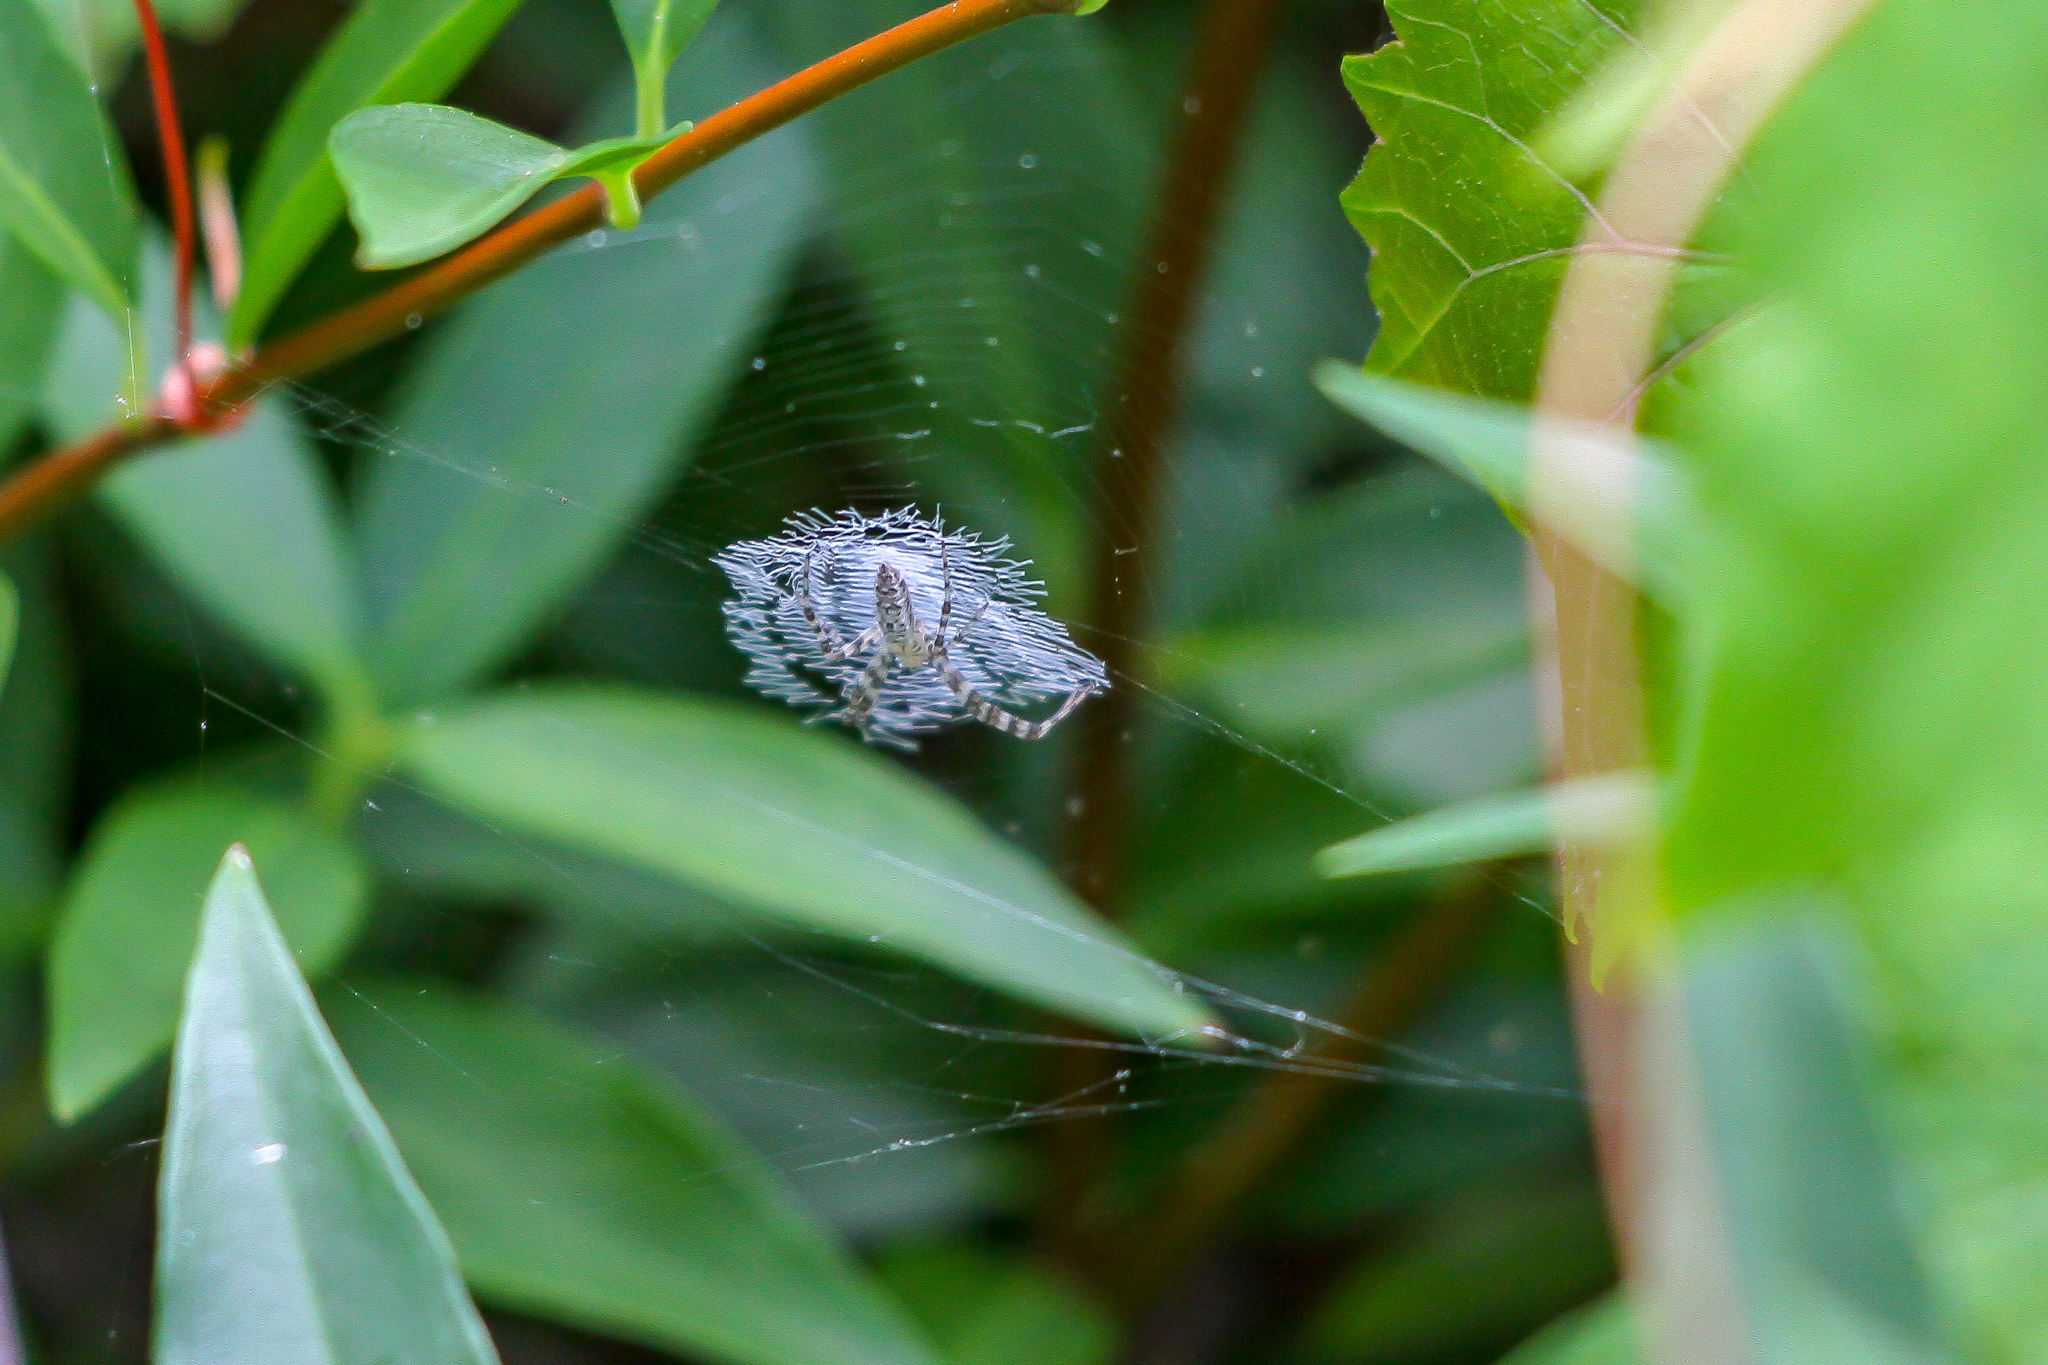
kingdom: Animalia
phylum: Arthropoda
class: Arachnida
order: Araneae
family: Araneidae
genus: Argiope
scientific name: Argiope aurantia
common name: Orb weavers
